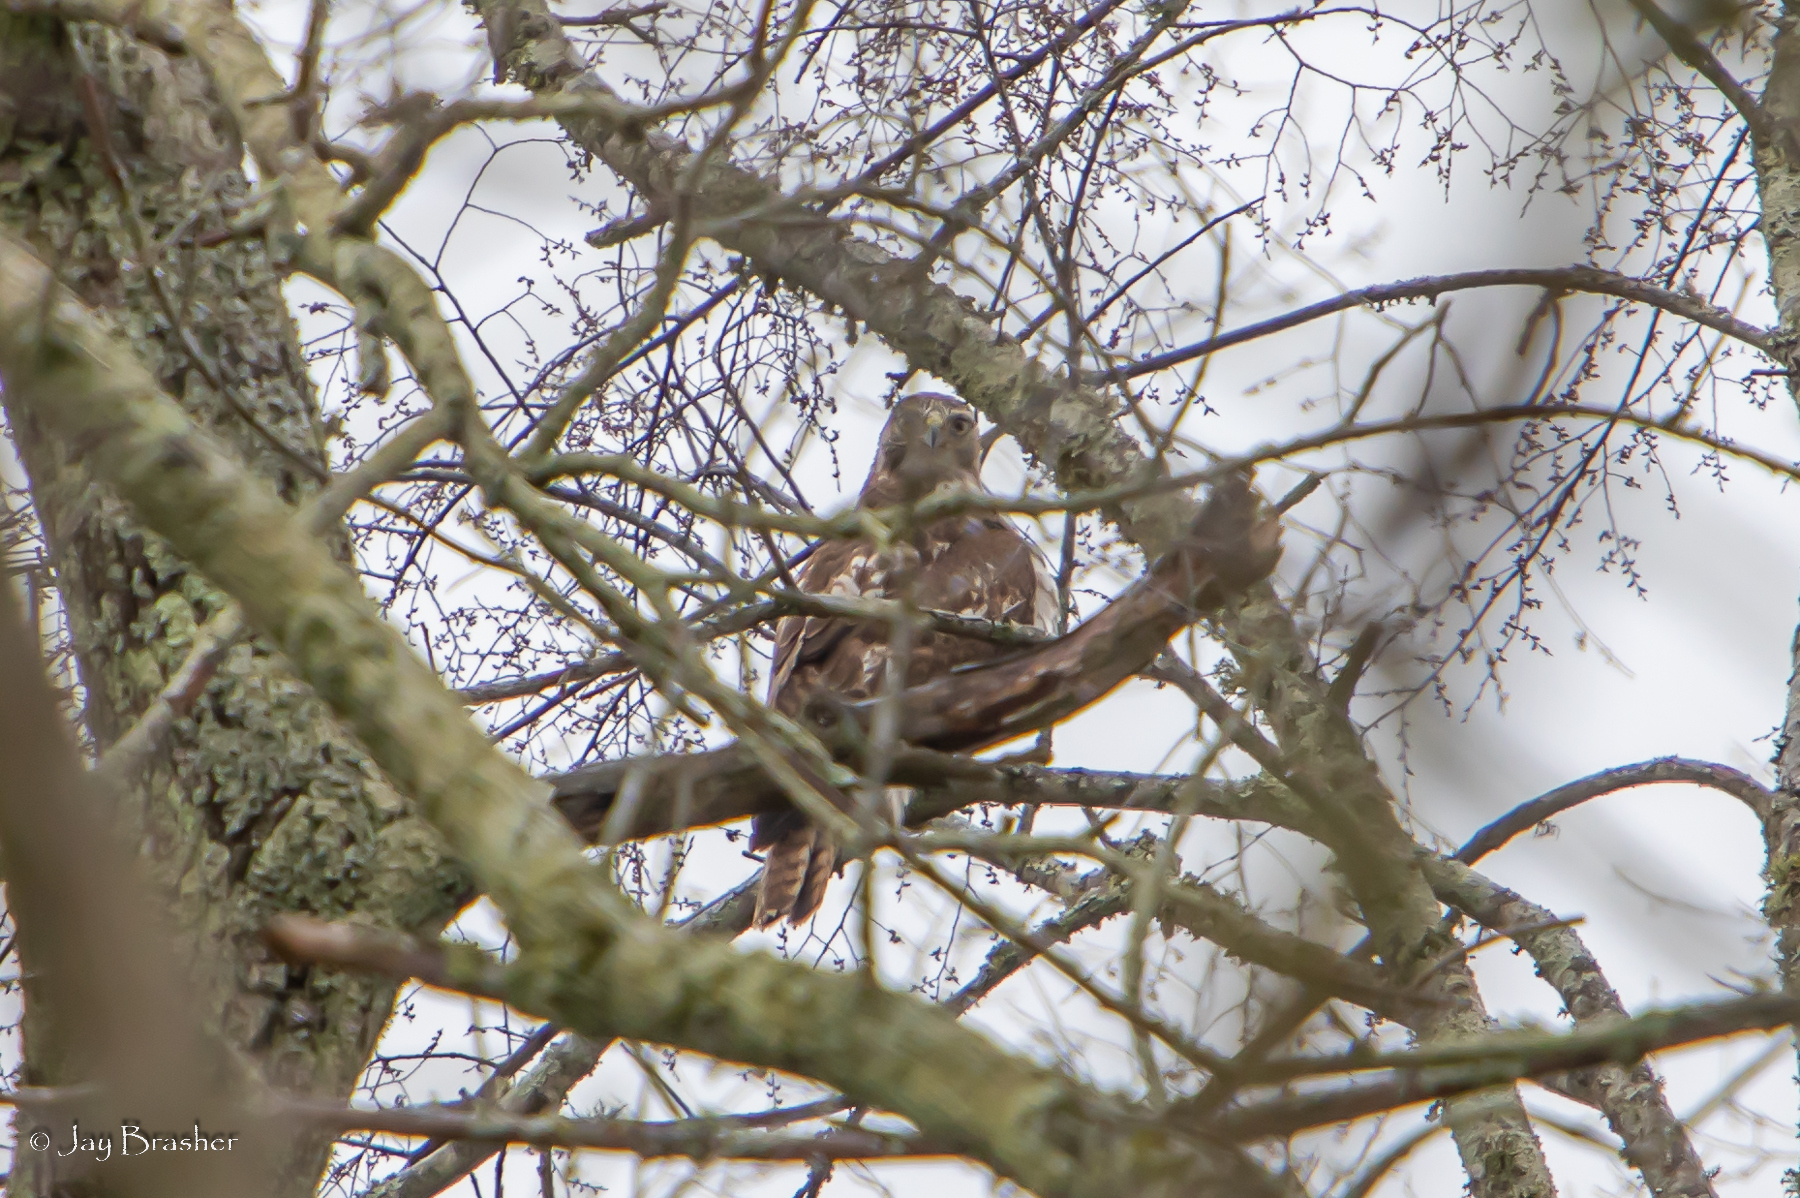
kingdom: Animalia
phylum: Chordata
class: Aves
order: Accipitriformes
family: Accipitridae
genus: Buteo
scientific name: Buteo jamaicensis
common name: Red-tailed hawk
